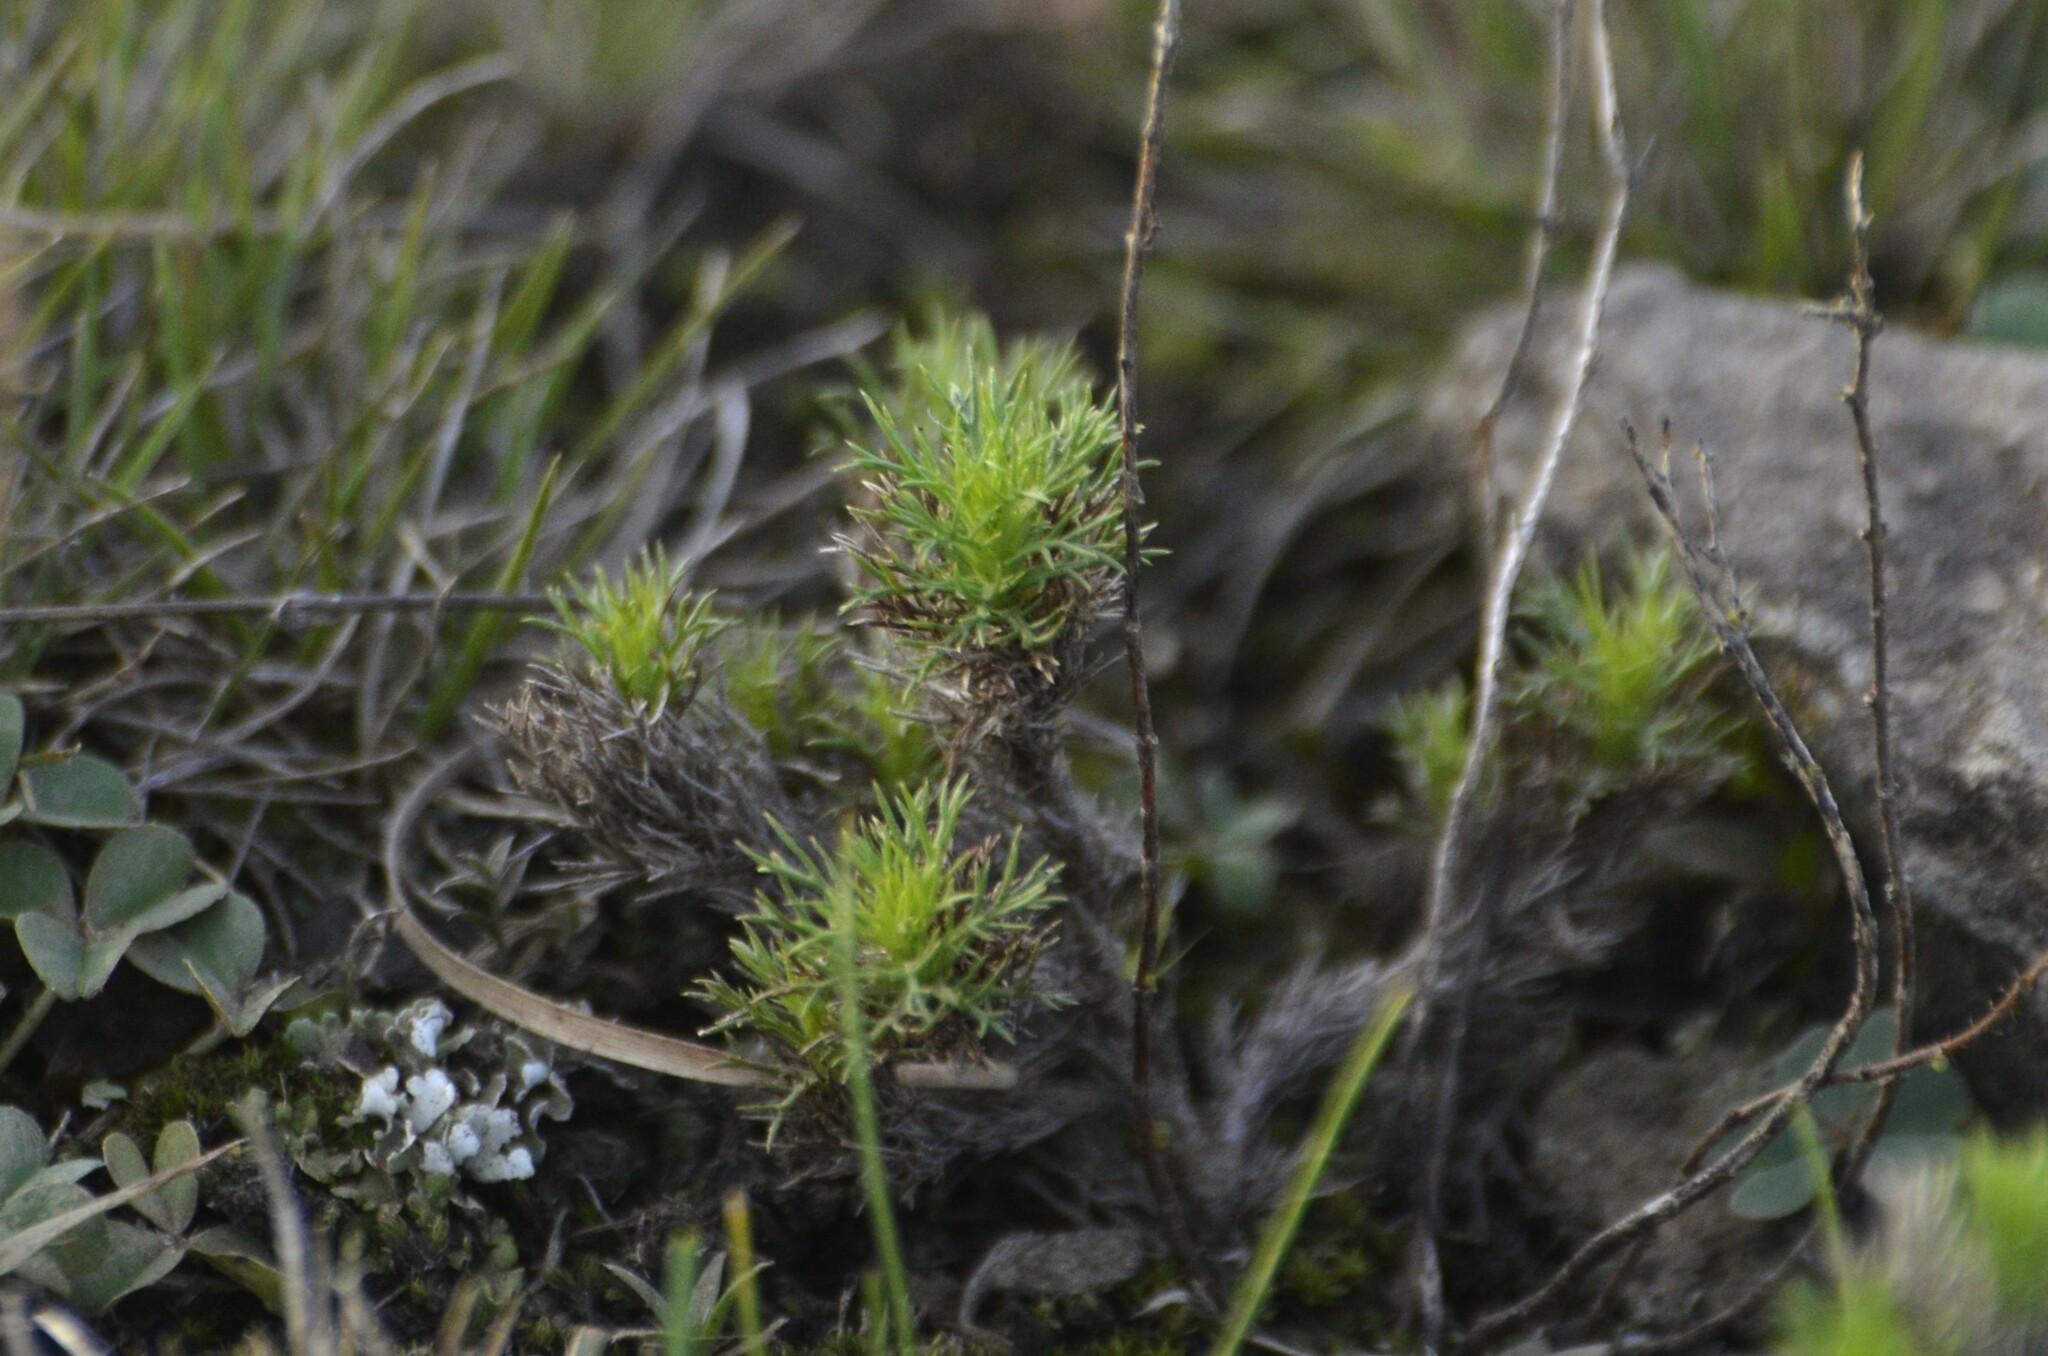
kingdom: Plantae
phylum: Tracheophyta
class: Magnoliopsida
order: Asterales
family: Asteraceae
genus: Sommerfeltia
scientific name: Sommerfeltia spinulosa
